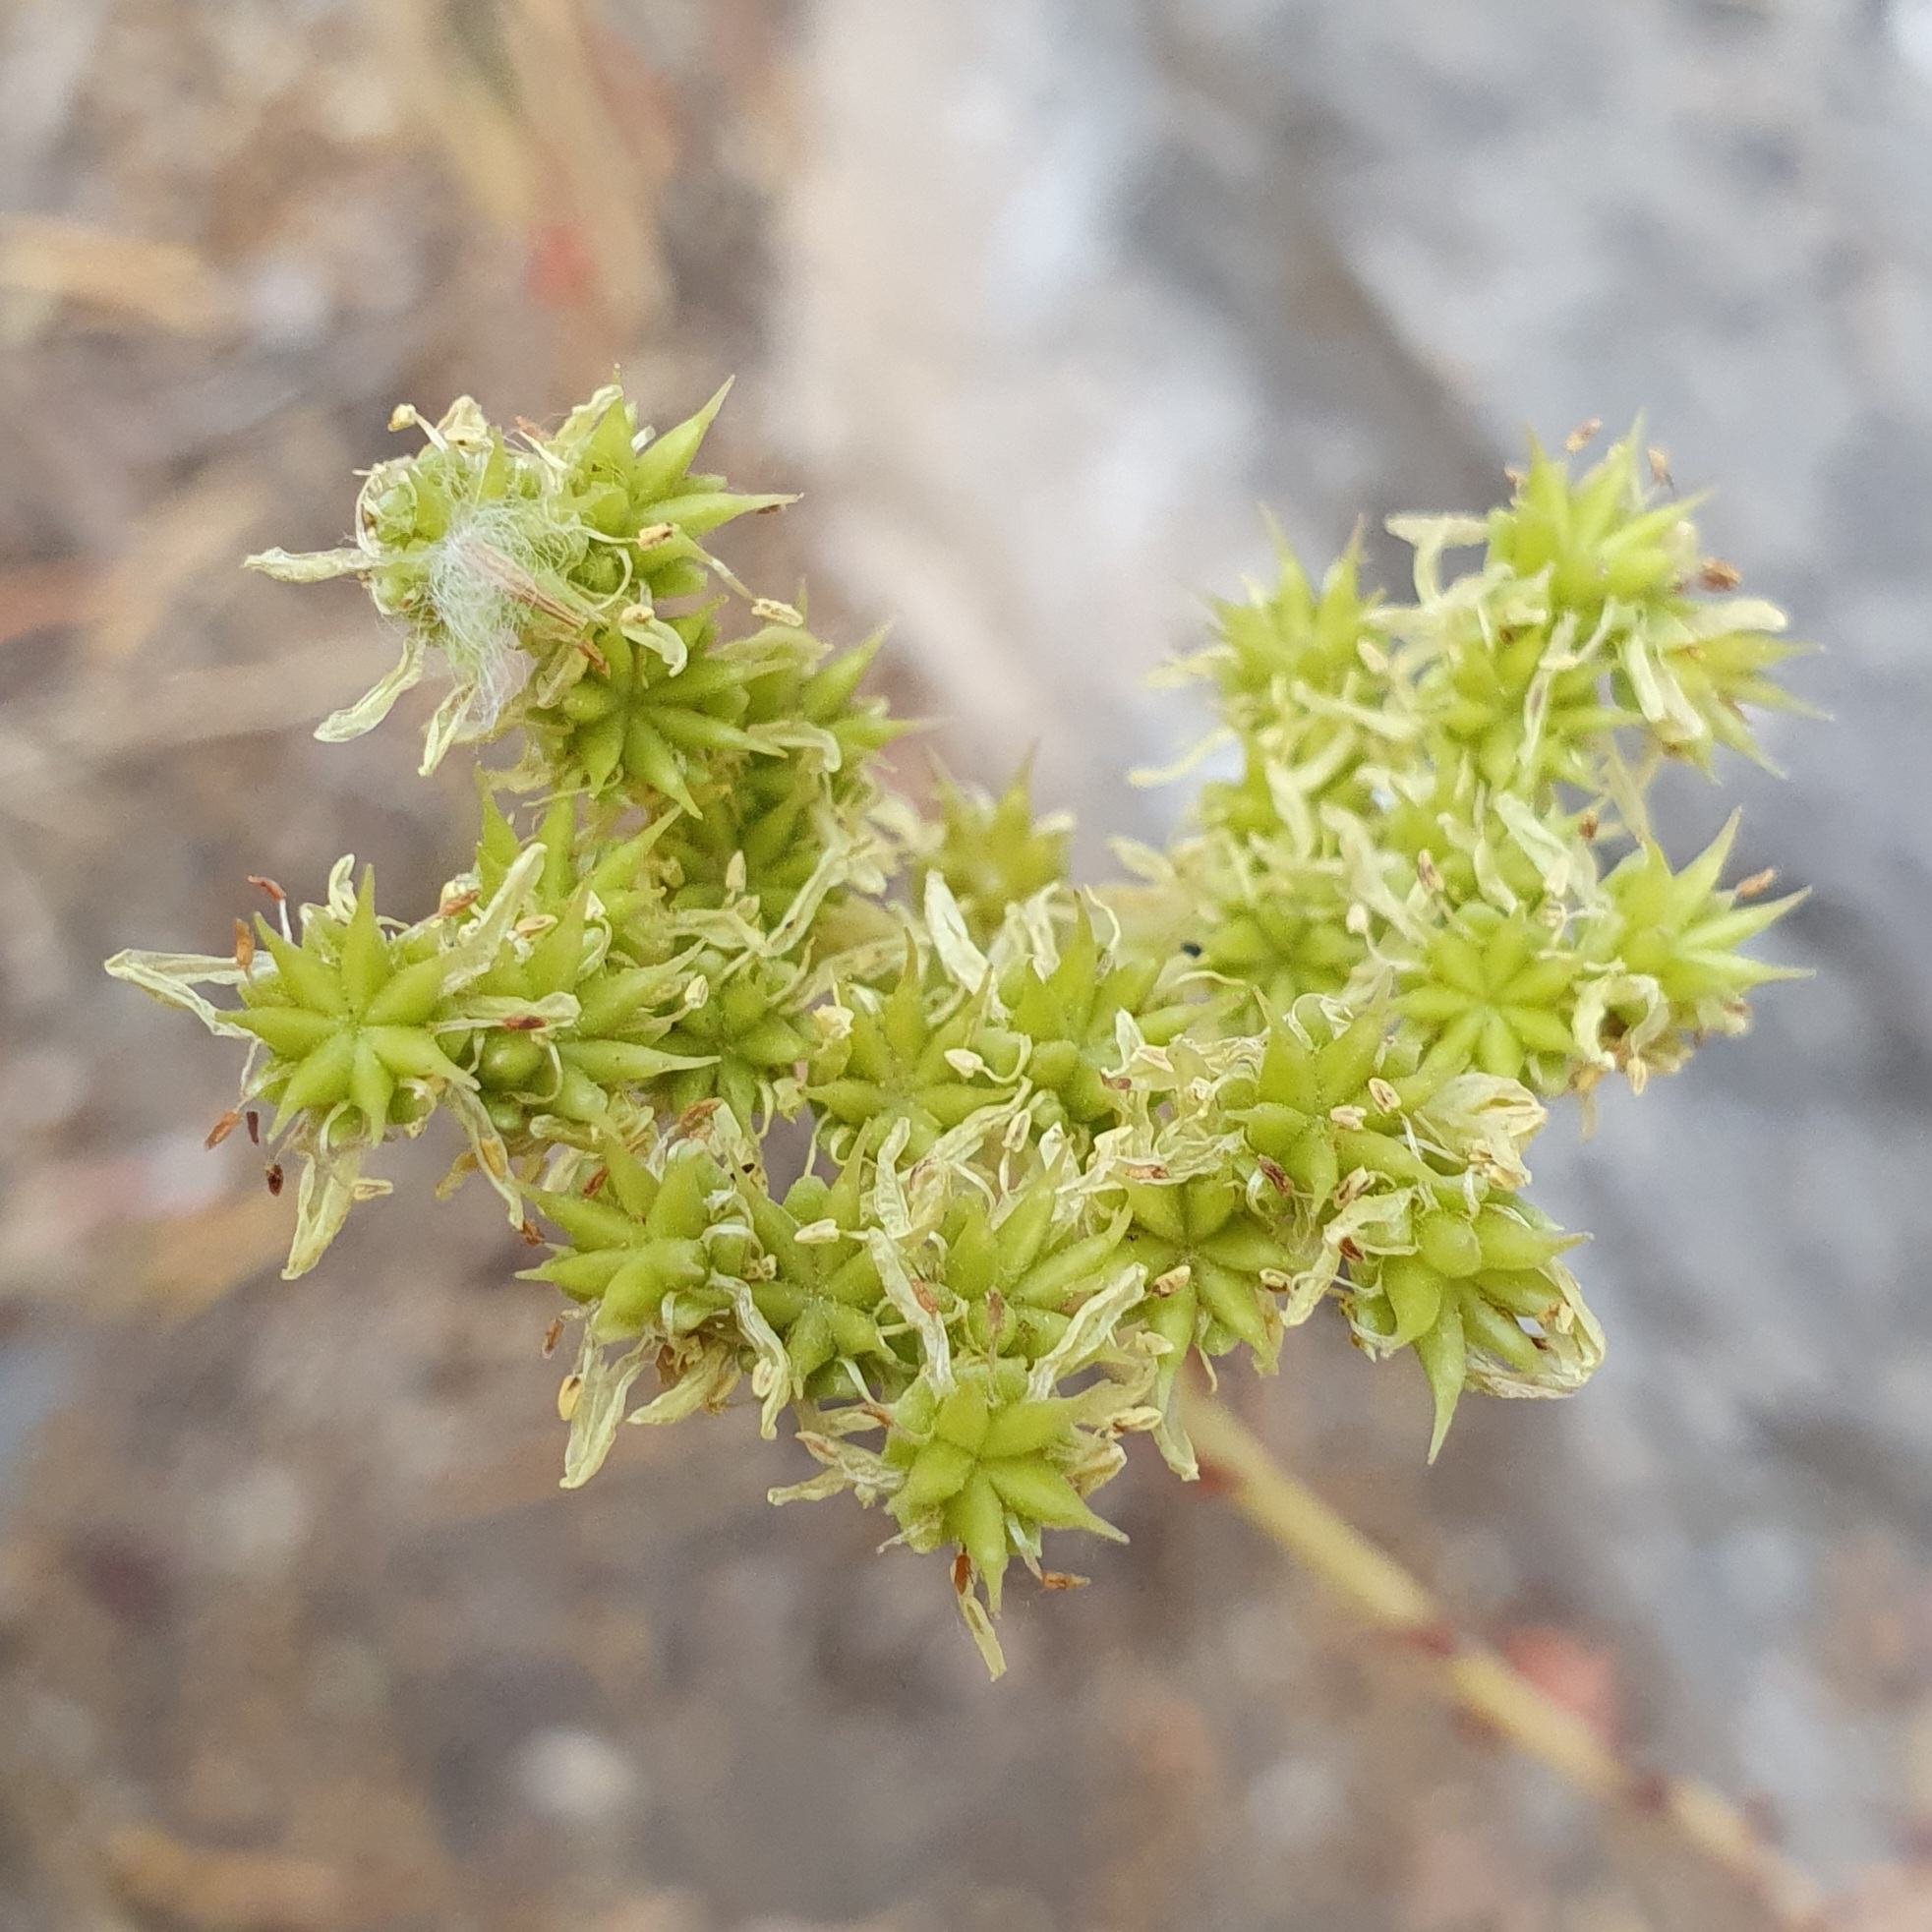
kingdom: Plantae
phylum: Tracheophyta
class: Magnoliopsida
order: Saxifragales
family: Crassulaceae
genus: Petrosedum
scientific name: Petrosedum sediforme
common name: Pale stonecrop
